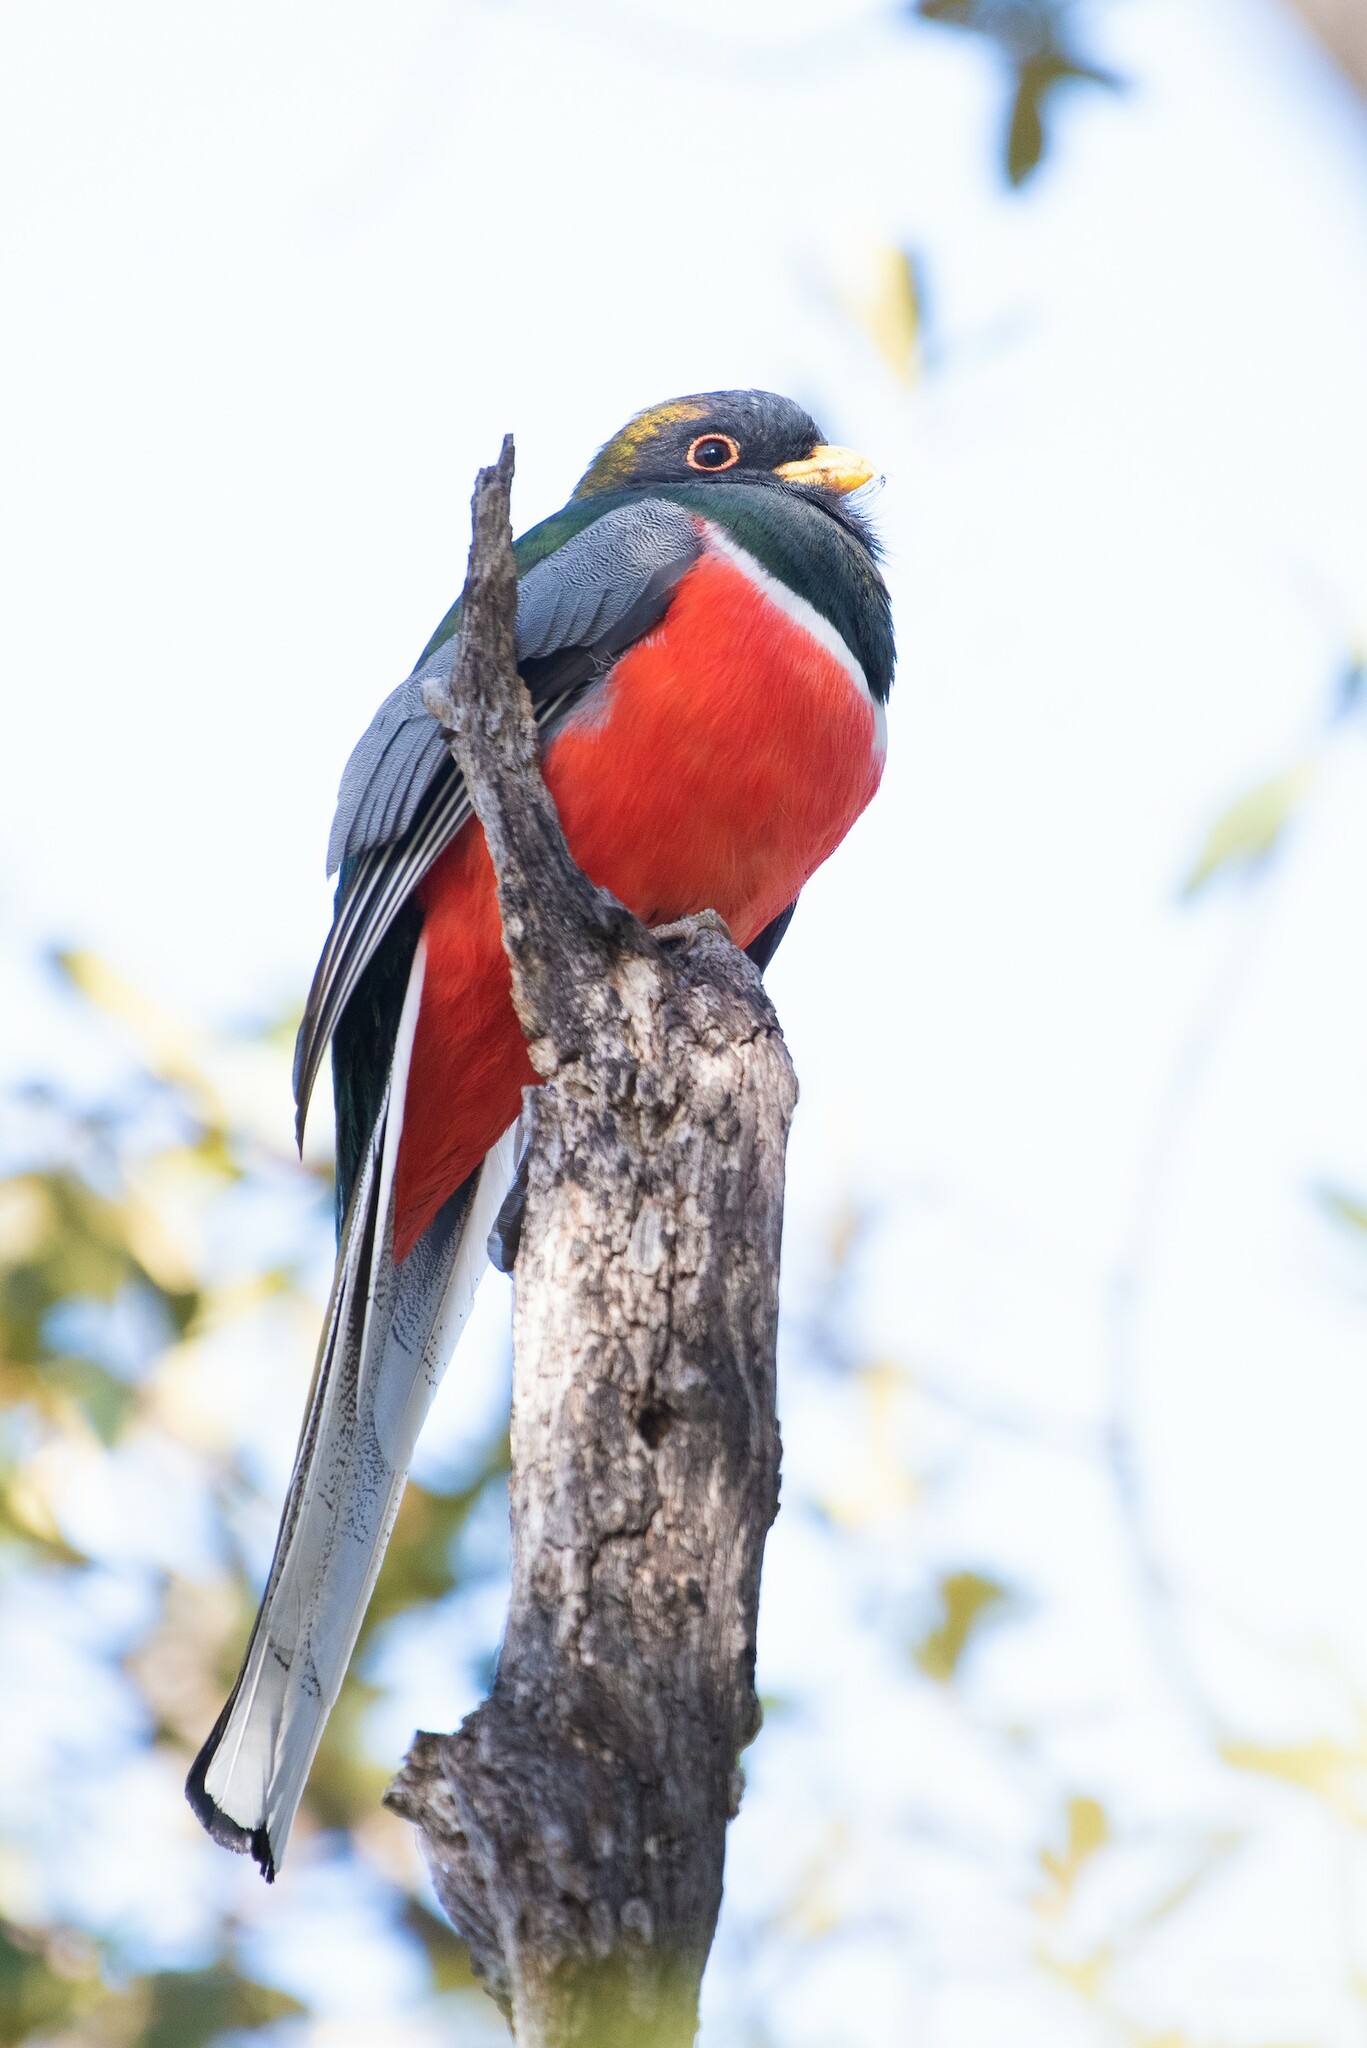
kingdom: Animalia
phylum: Chordata
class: Aves
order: Trogoniformes
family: Trogonidae
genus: Trogon
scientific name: Trogon elegans
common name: Elegant trogon
